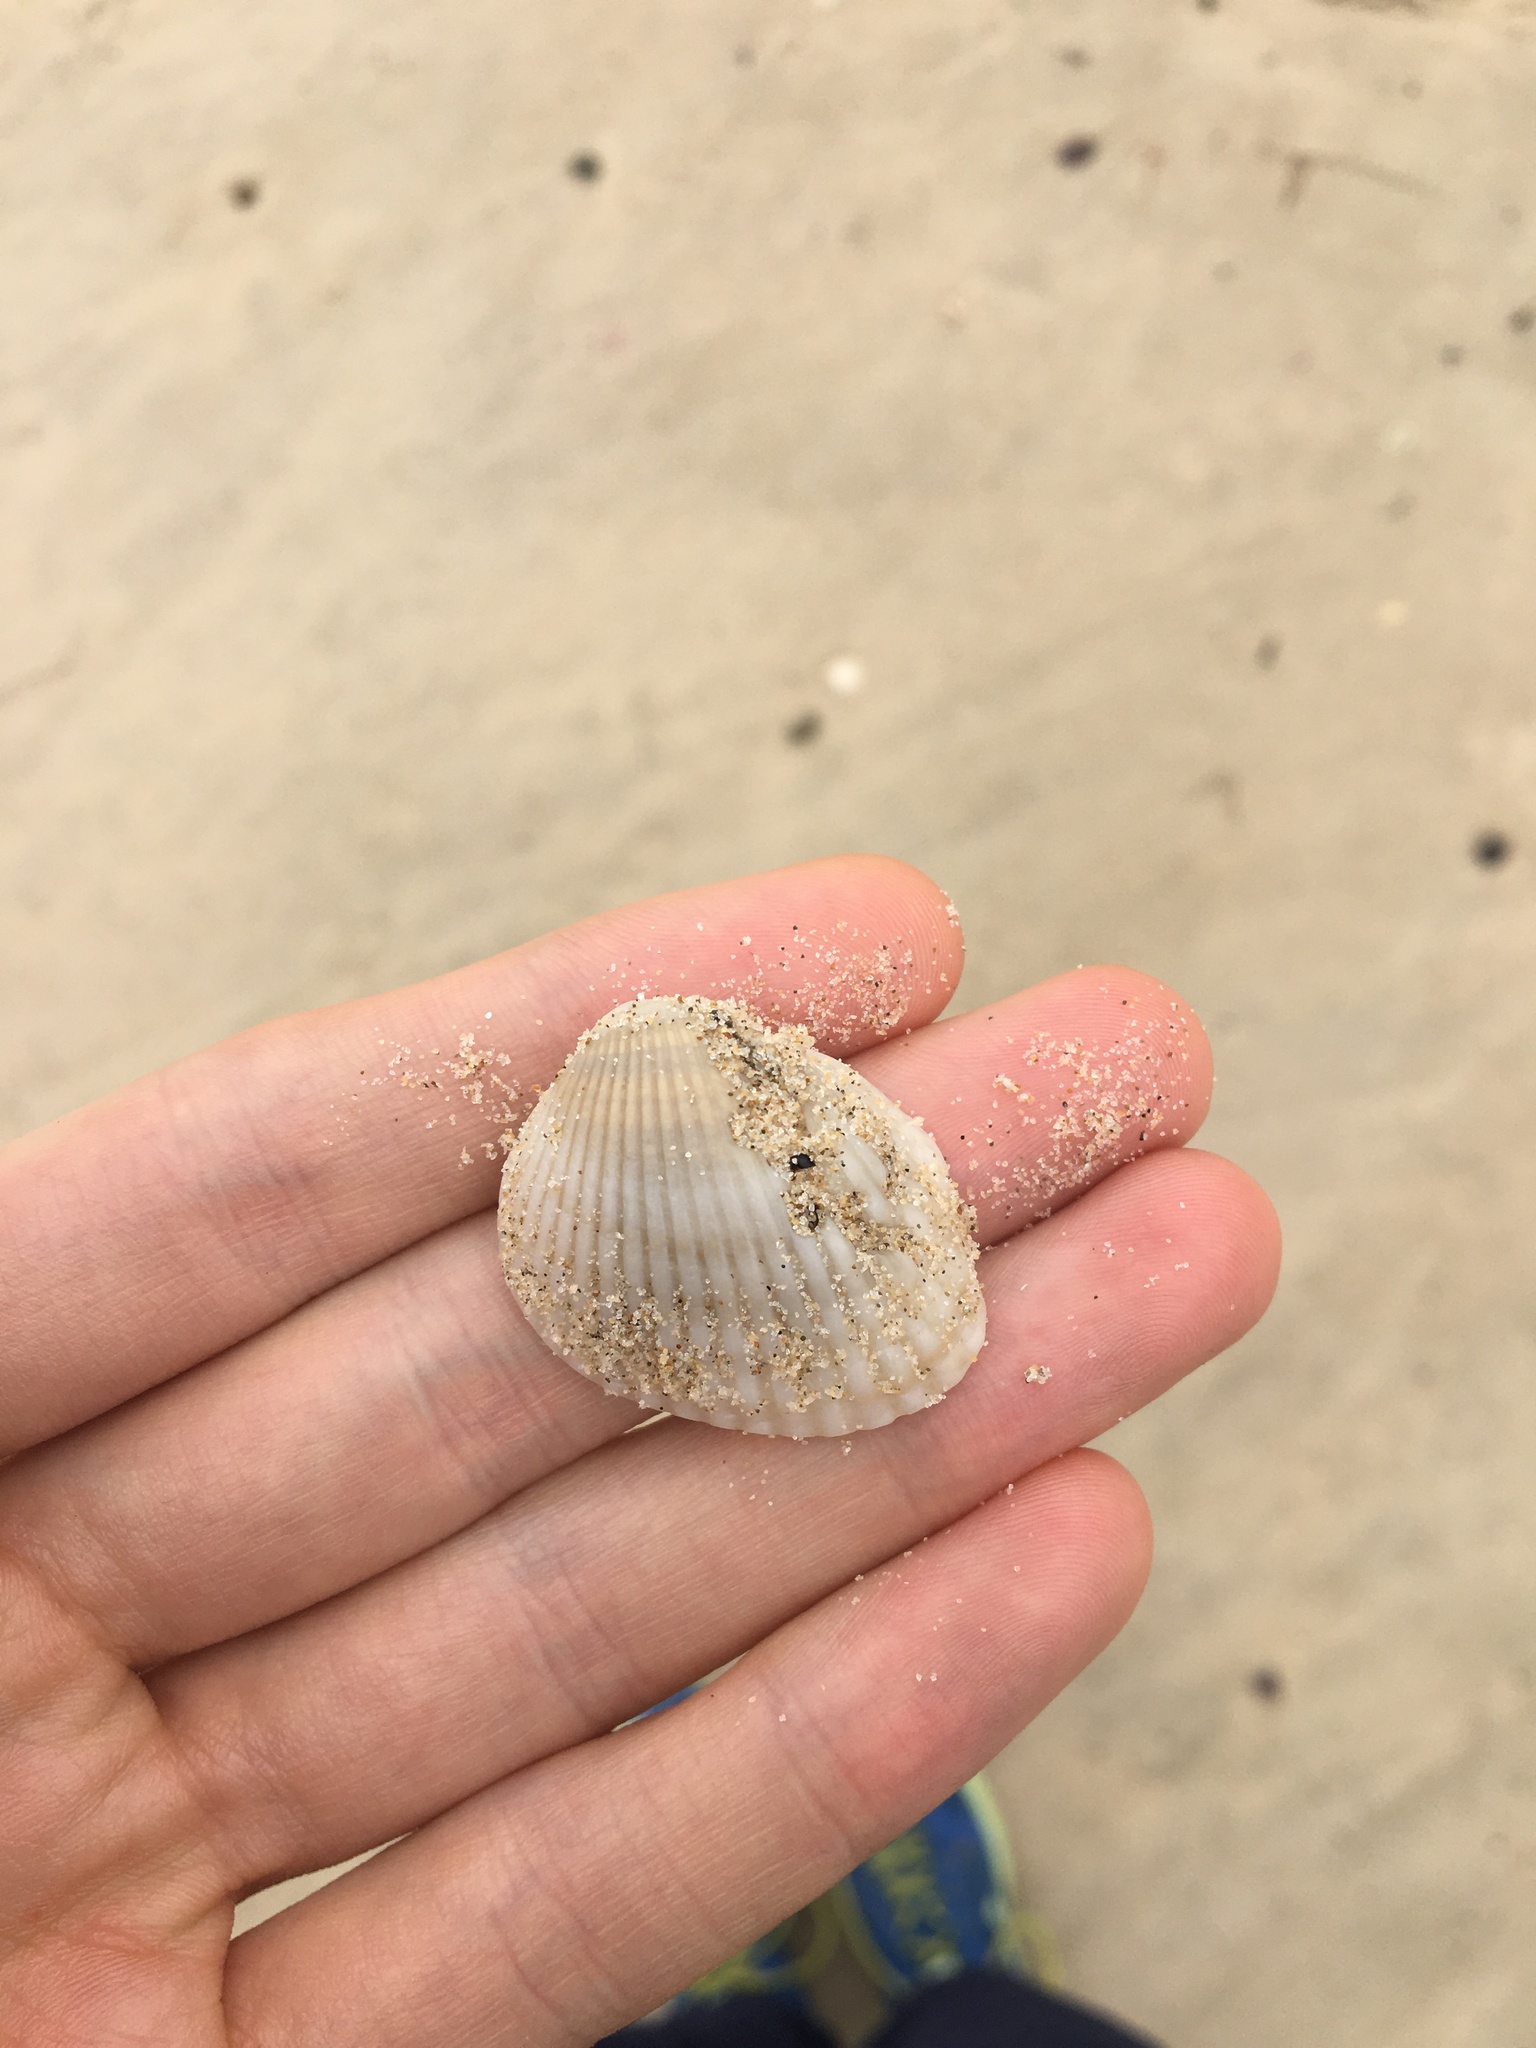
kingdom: Animalia
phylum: Mollusca
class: Bivalvia
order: Arcida
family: Arcidae
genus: Anadara
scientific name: Anadara trapezia
